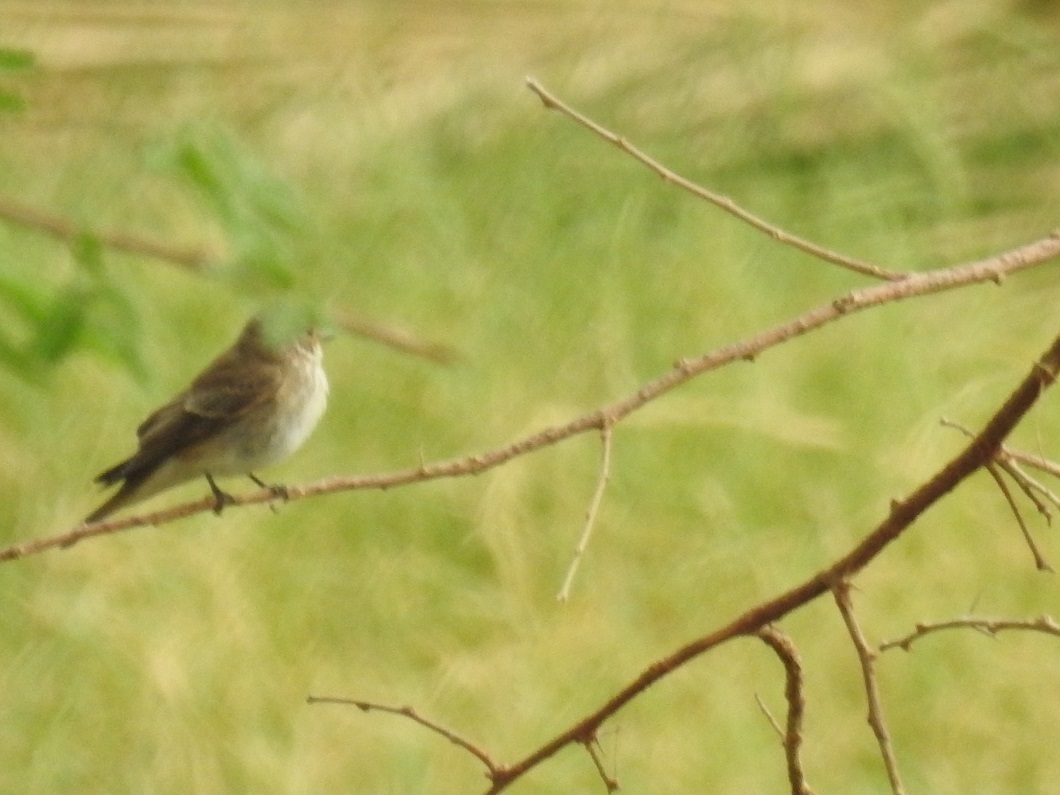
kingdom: Animalia
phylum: Chordata
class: Aves
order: Passeriformes
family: Muscicapidae
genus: Muscicapa
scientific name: Muscicapa striata
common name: Spotted flycatcher
